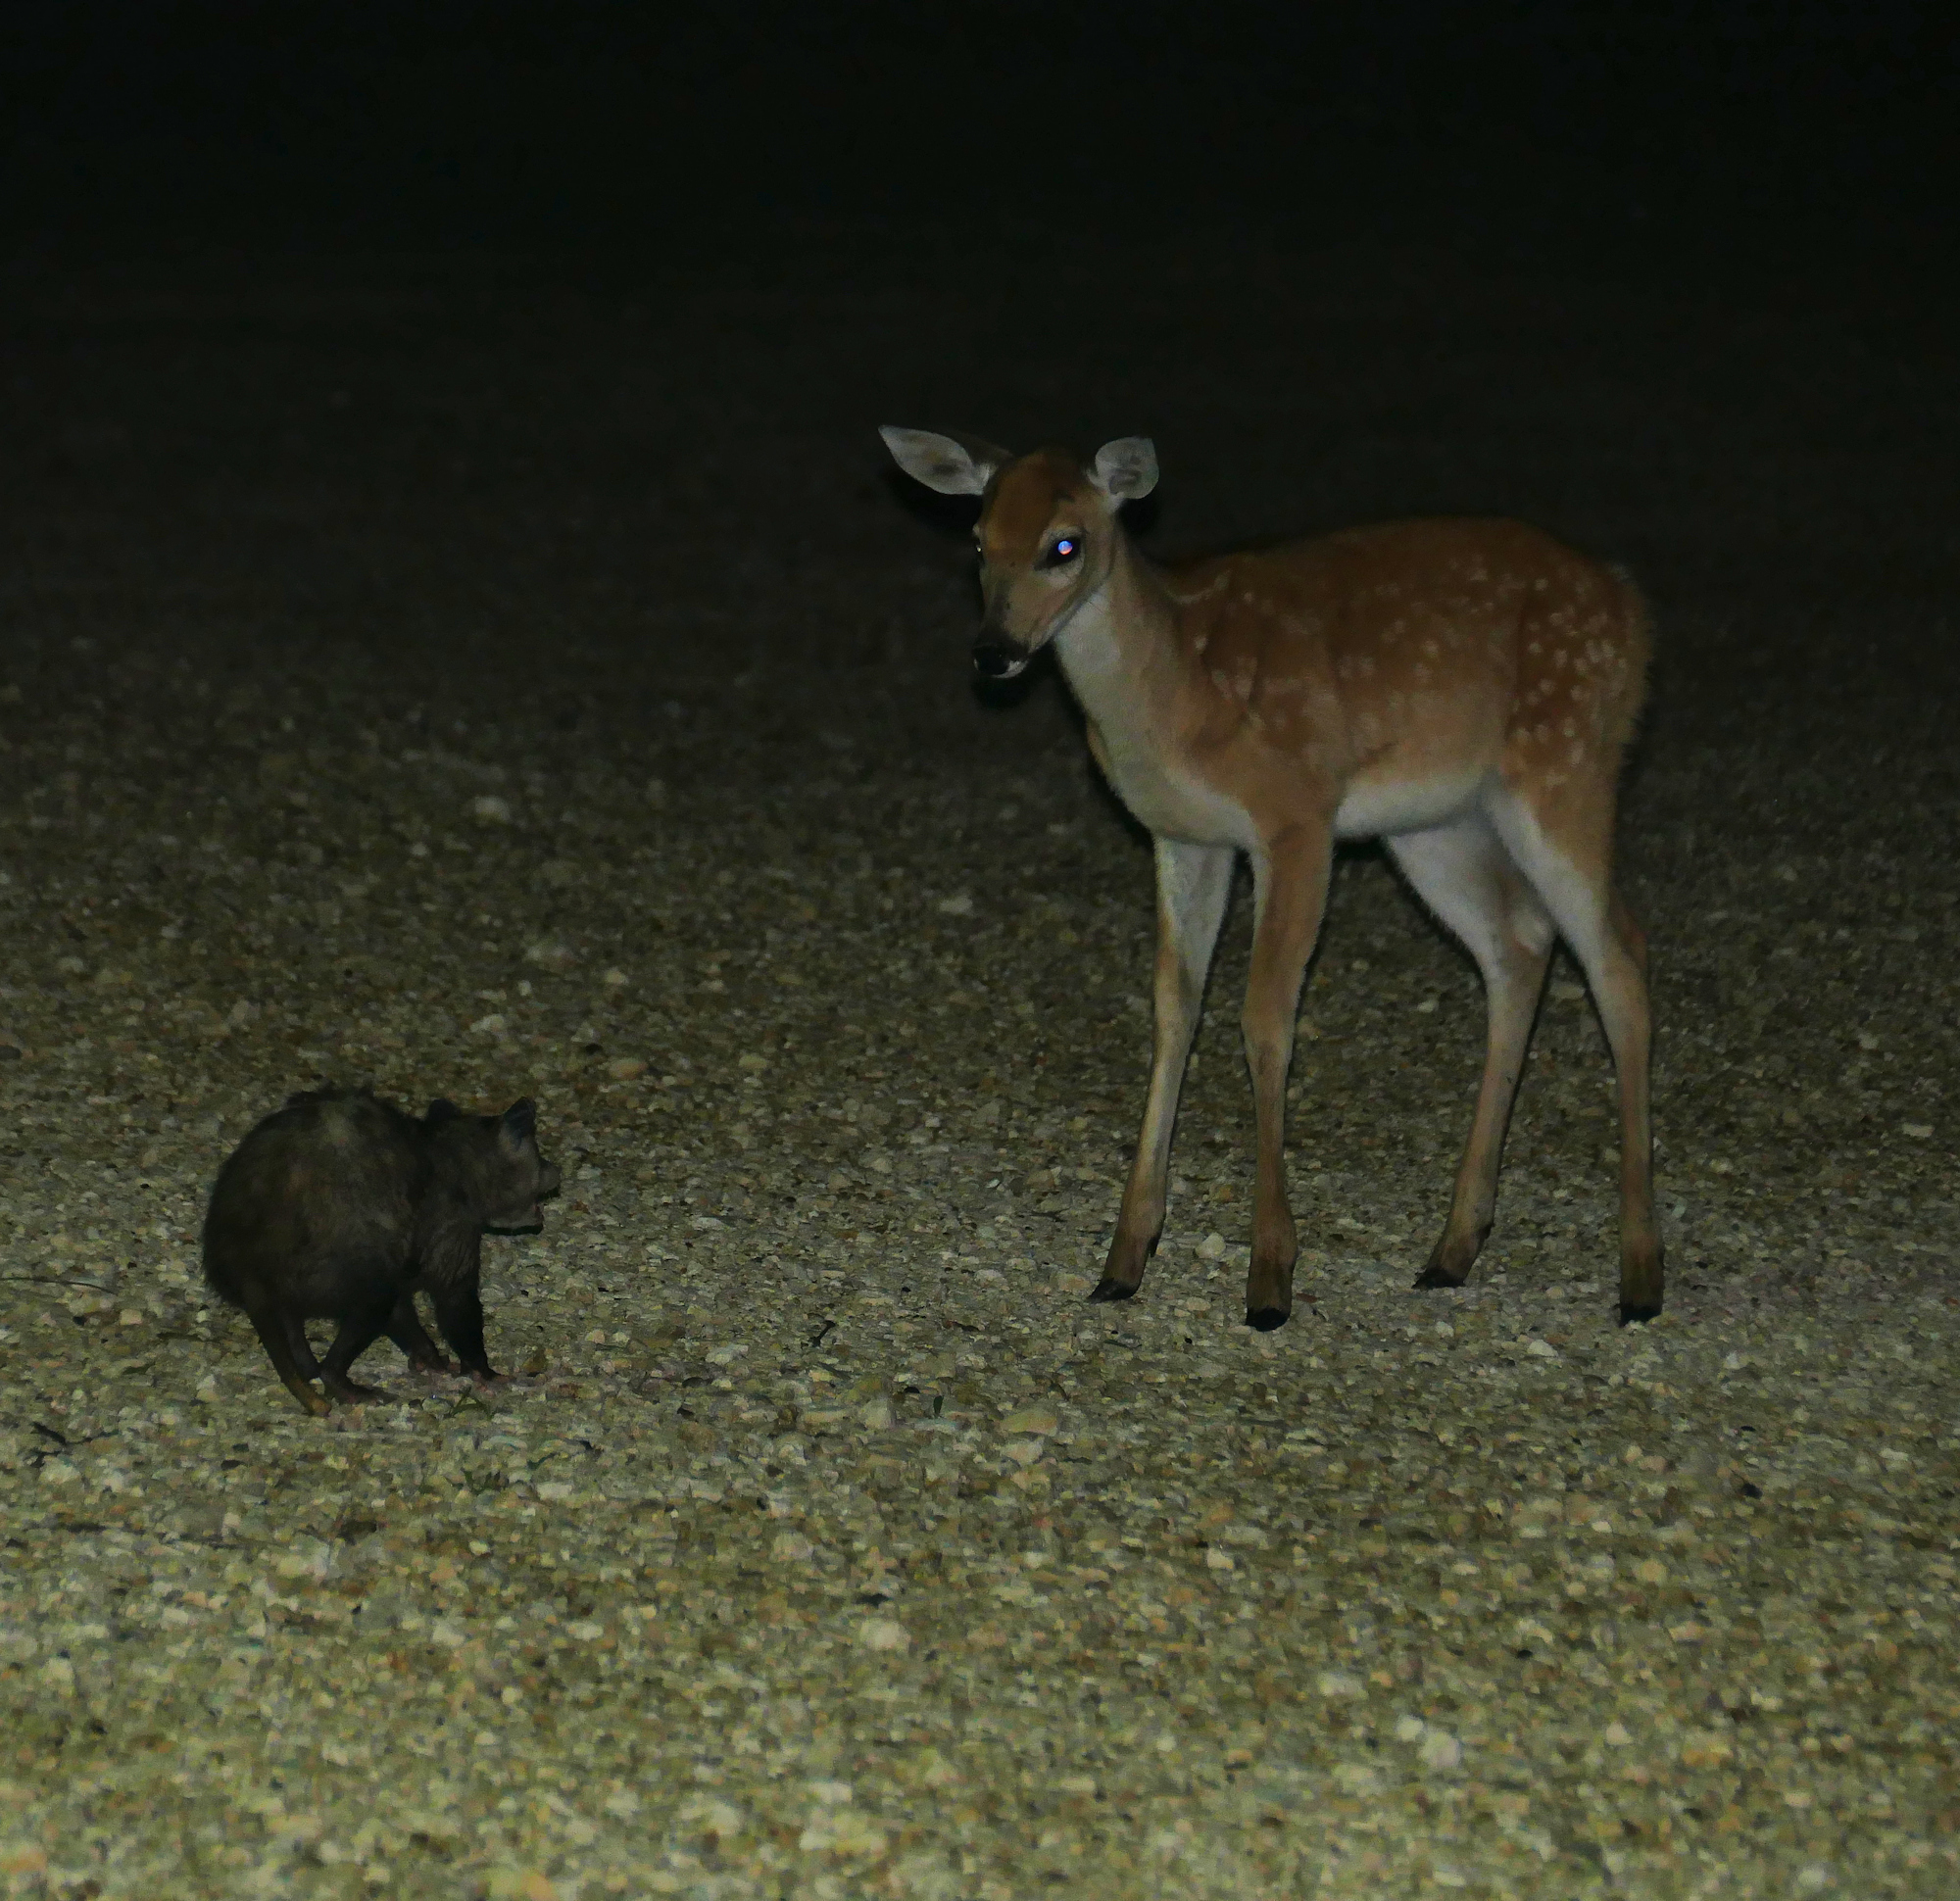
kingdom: Animalia
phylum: Chordata
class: Mammalia
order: Didelphimorphia
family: Didelphidae
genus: Didelphis
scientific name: Didelphis virginiana
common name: Virginia opossum
